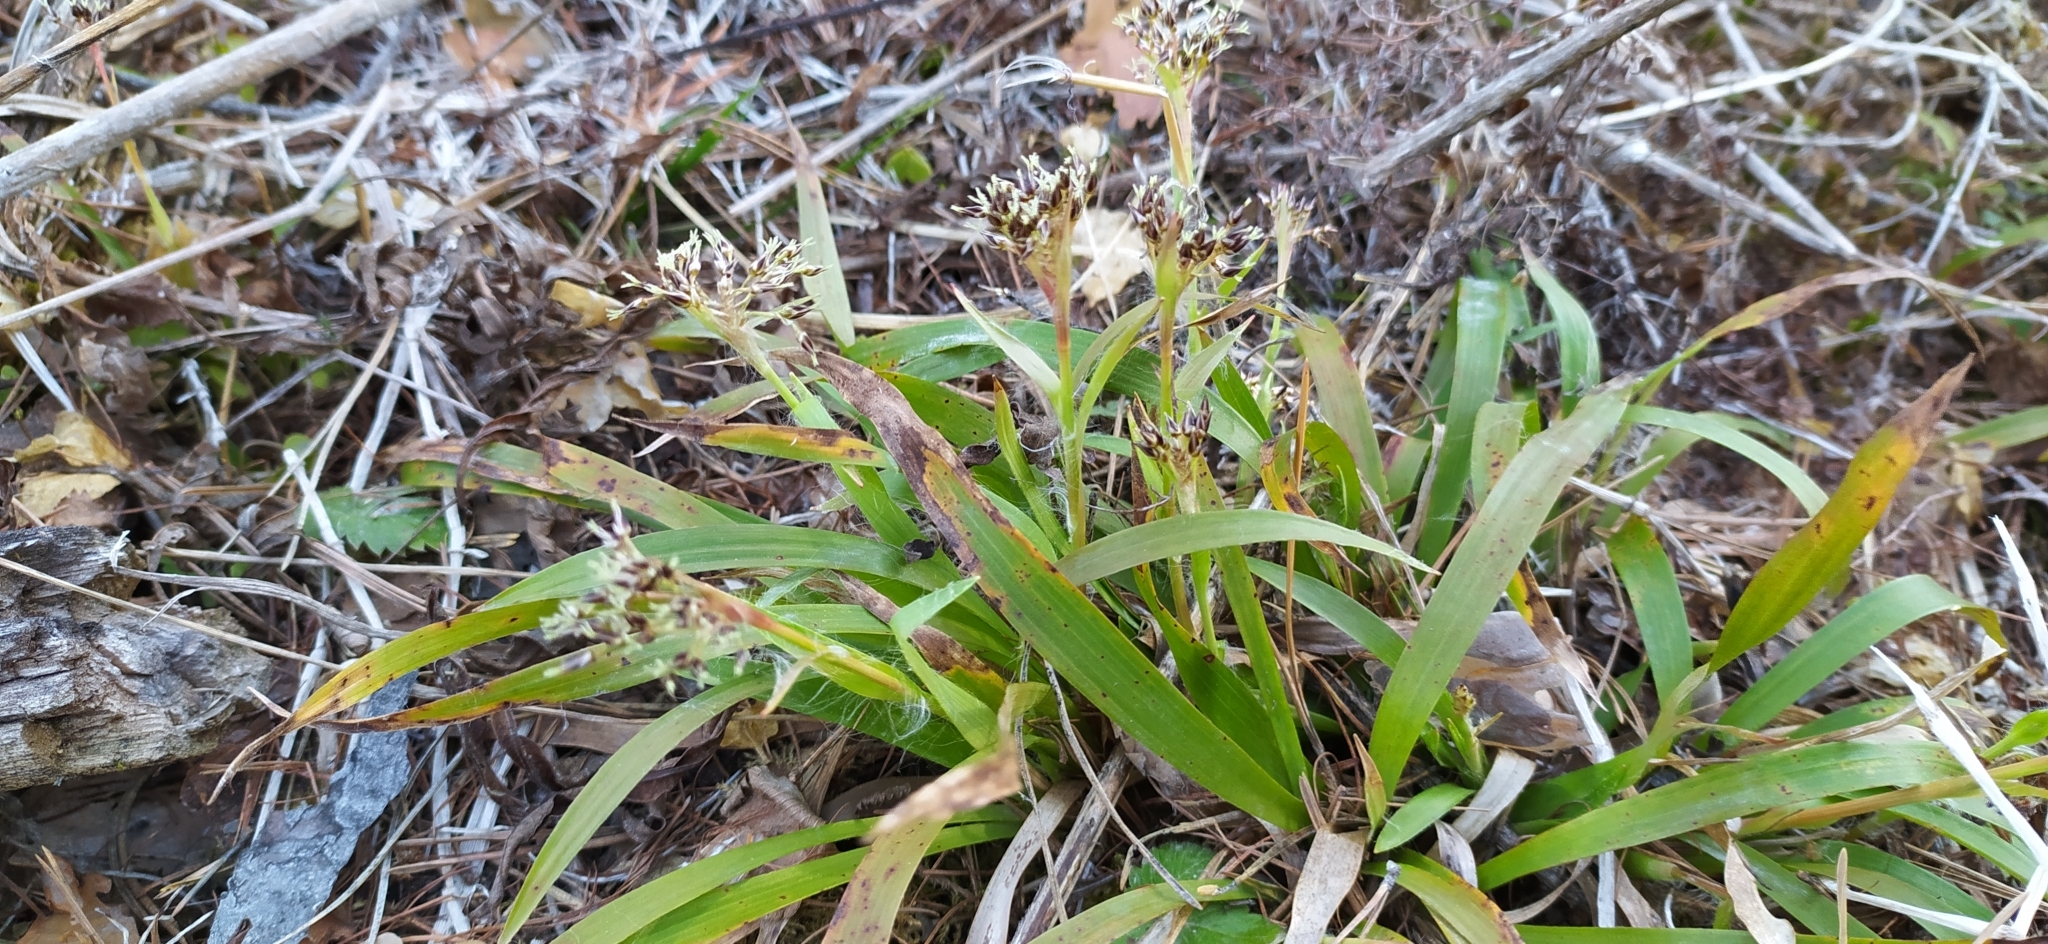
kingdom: Plantae
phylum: Tracheophyta
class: Liliopsida
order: Poales
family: Juncaceae
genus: Luzula
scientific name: Luzula pilosa
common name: Hairy wood-rush
